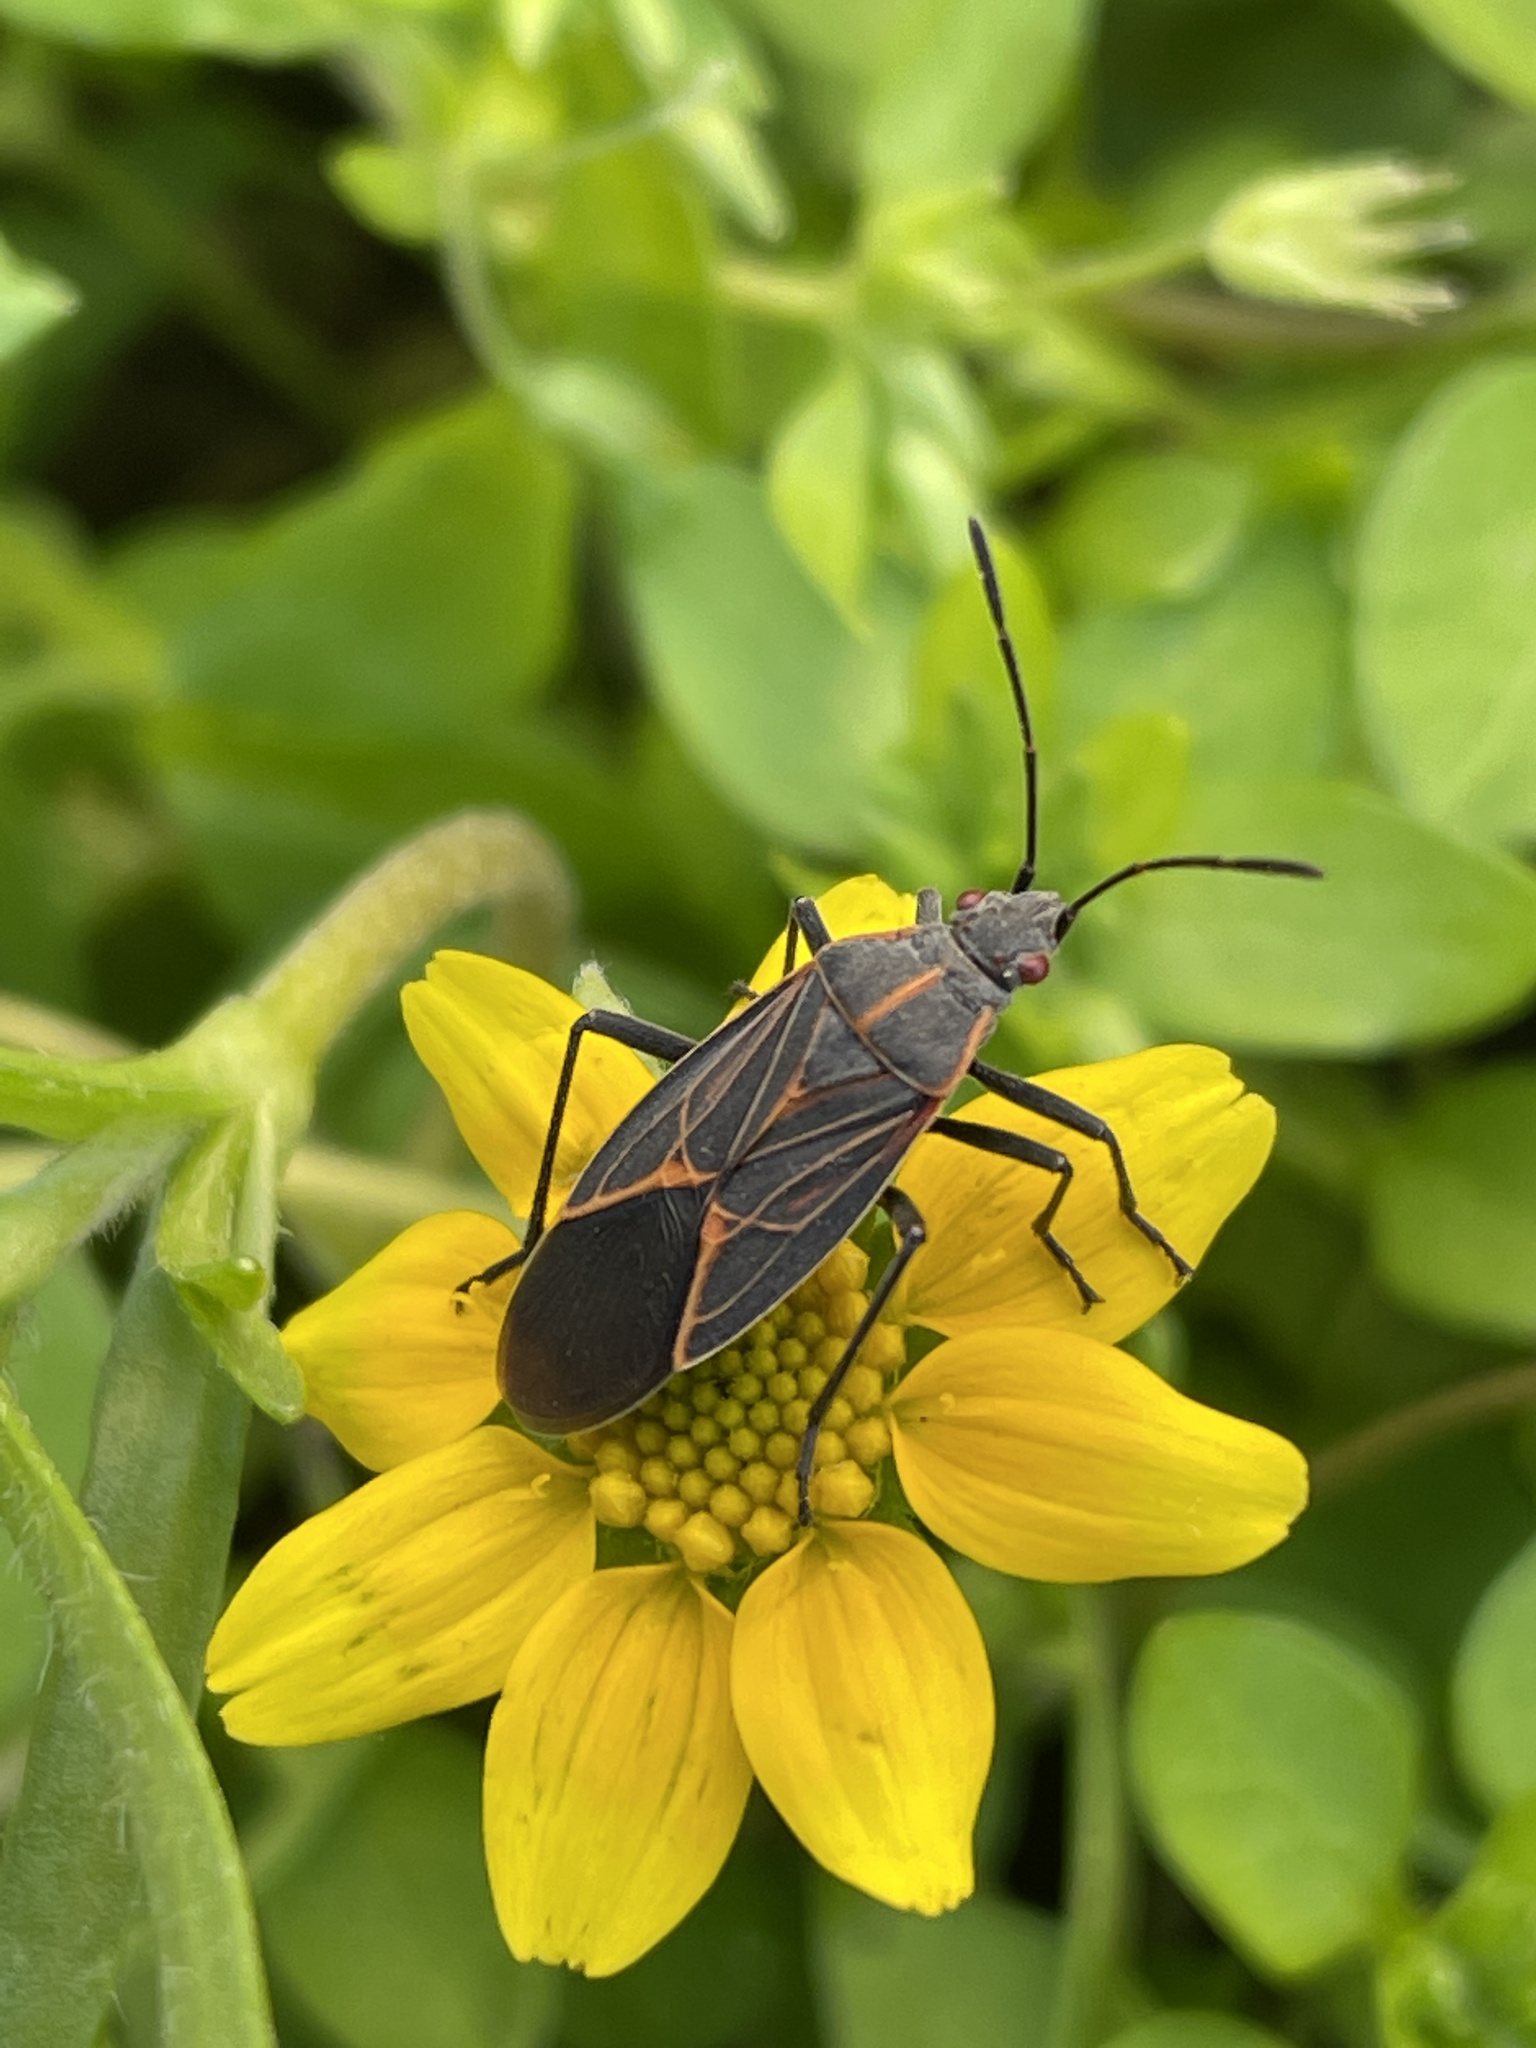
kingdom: Animalia
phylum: Arthropoda
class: Insecta
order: Hemiptera
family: Rhopalidae
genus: Boisea
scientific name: Boisea rubrolineata
